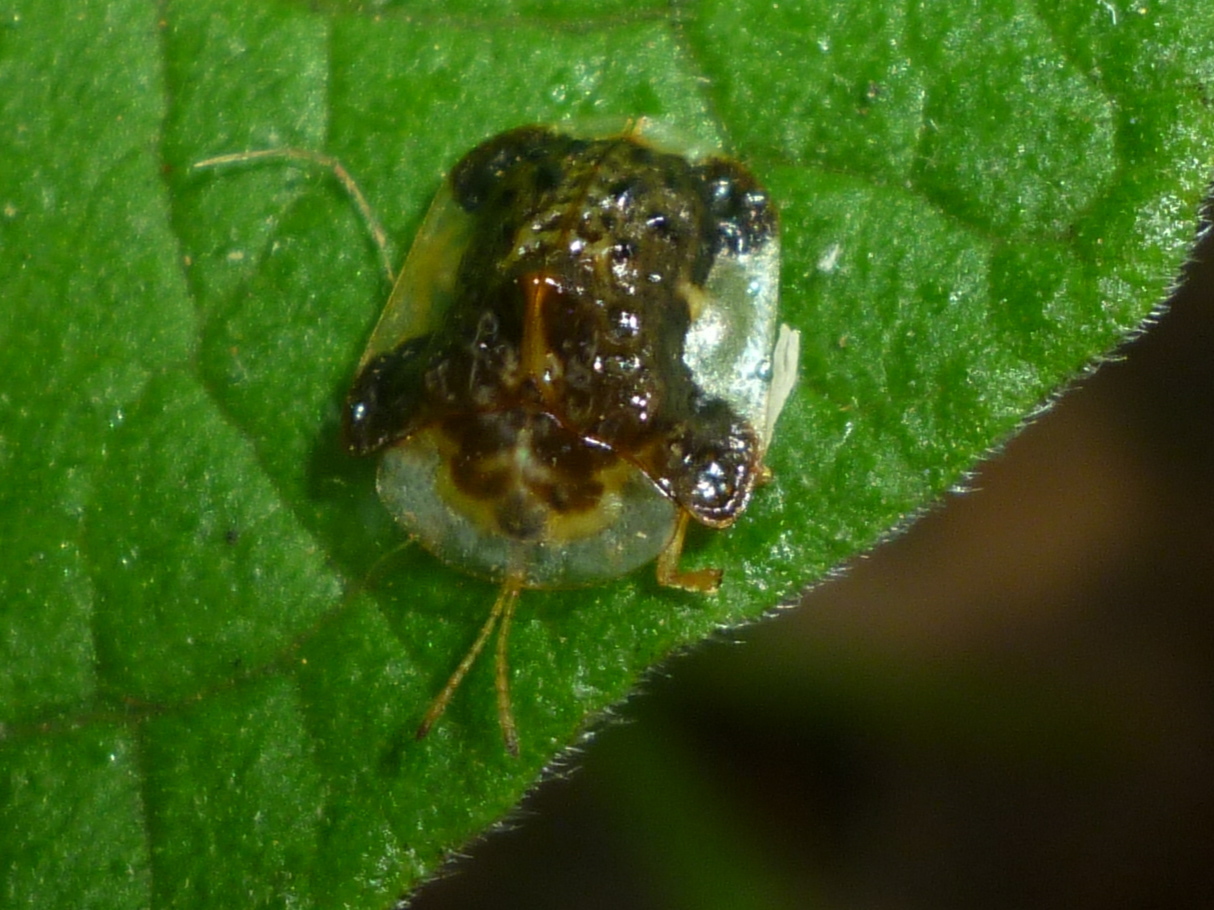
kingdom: Animalia
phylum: Arthropoda
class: Insecta
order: Coleoptera
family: Chrysomelidae
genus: Helocassis
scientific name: Helocassis clavata
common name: Clavate tortoise beetle
